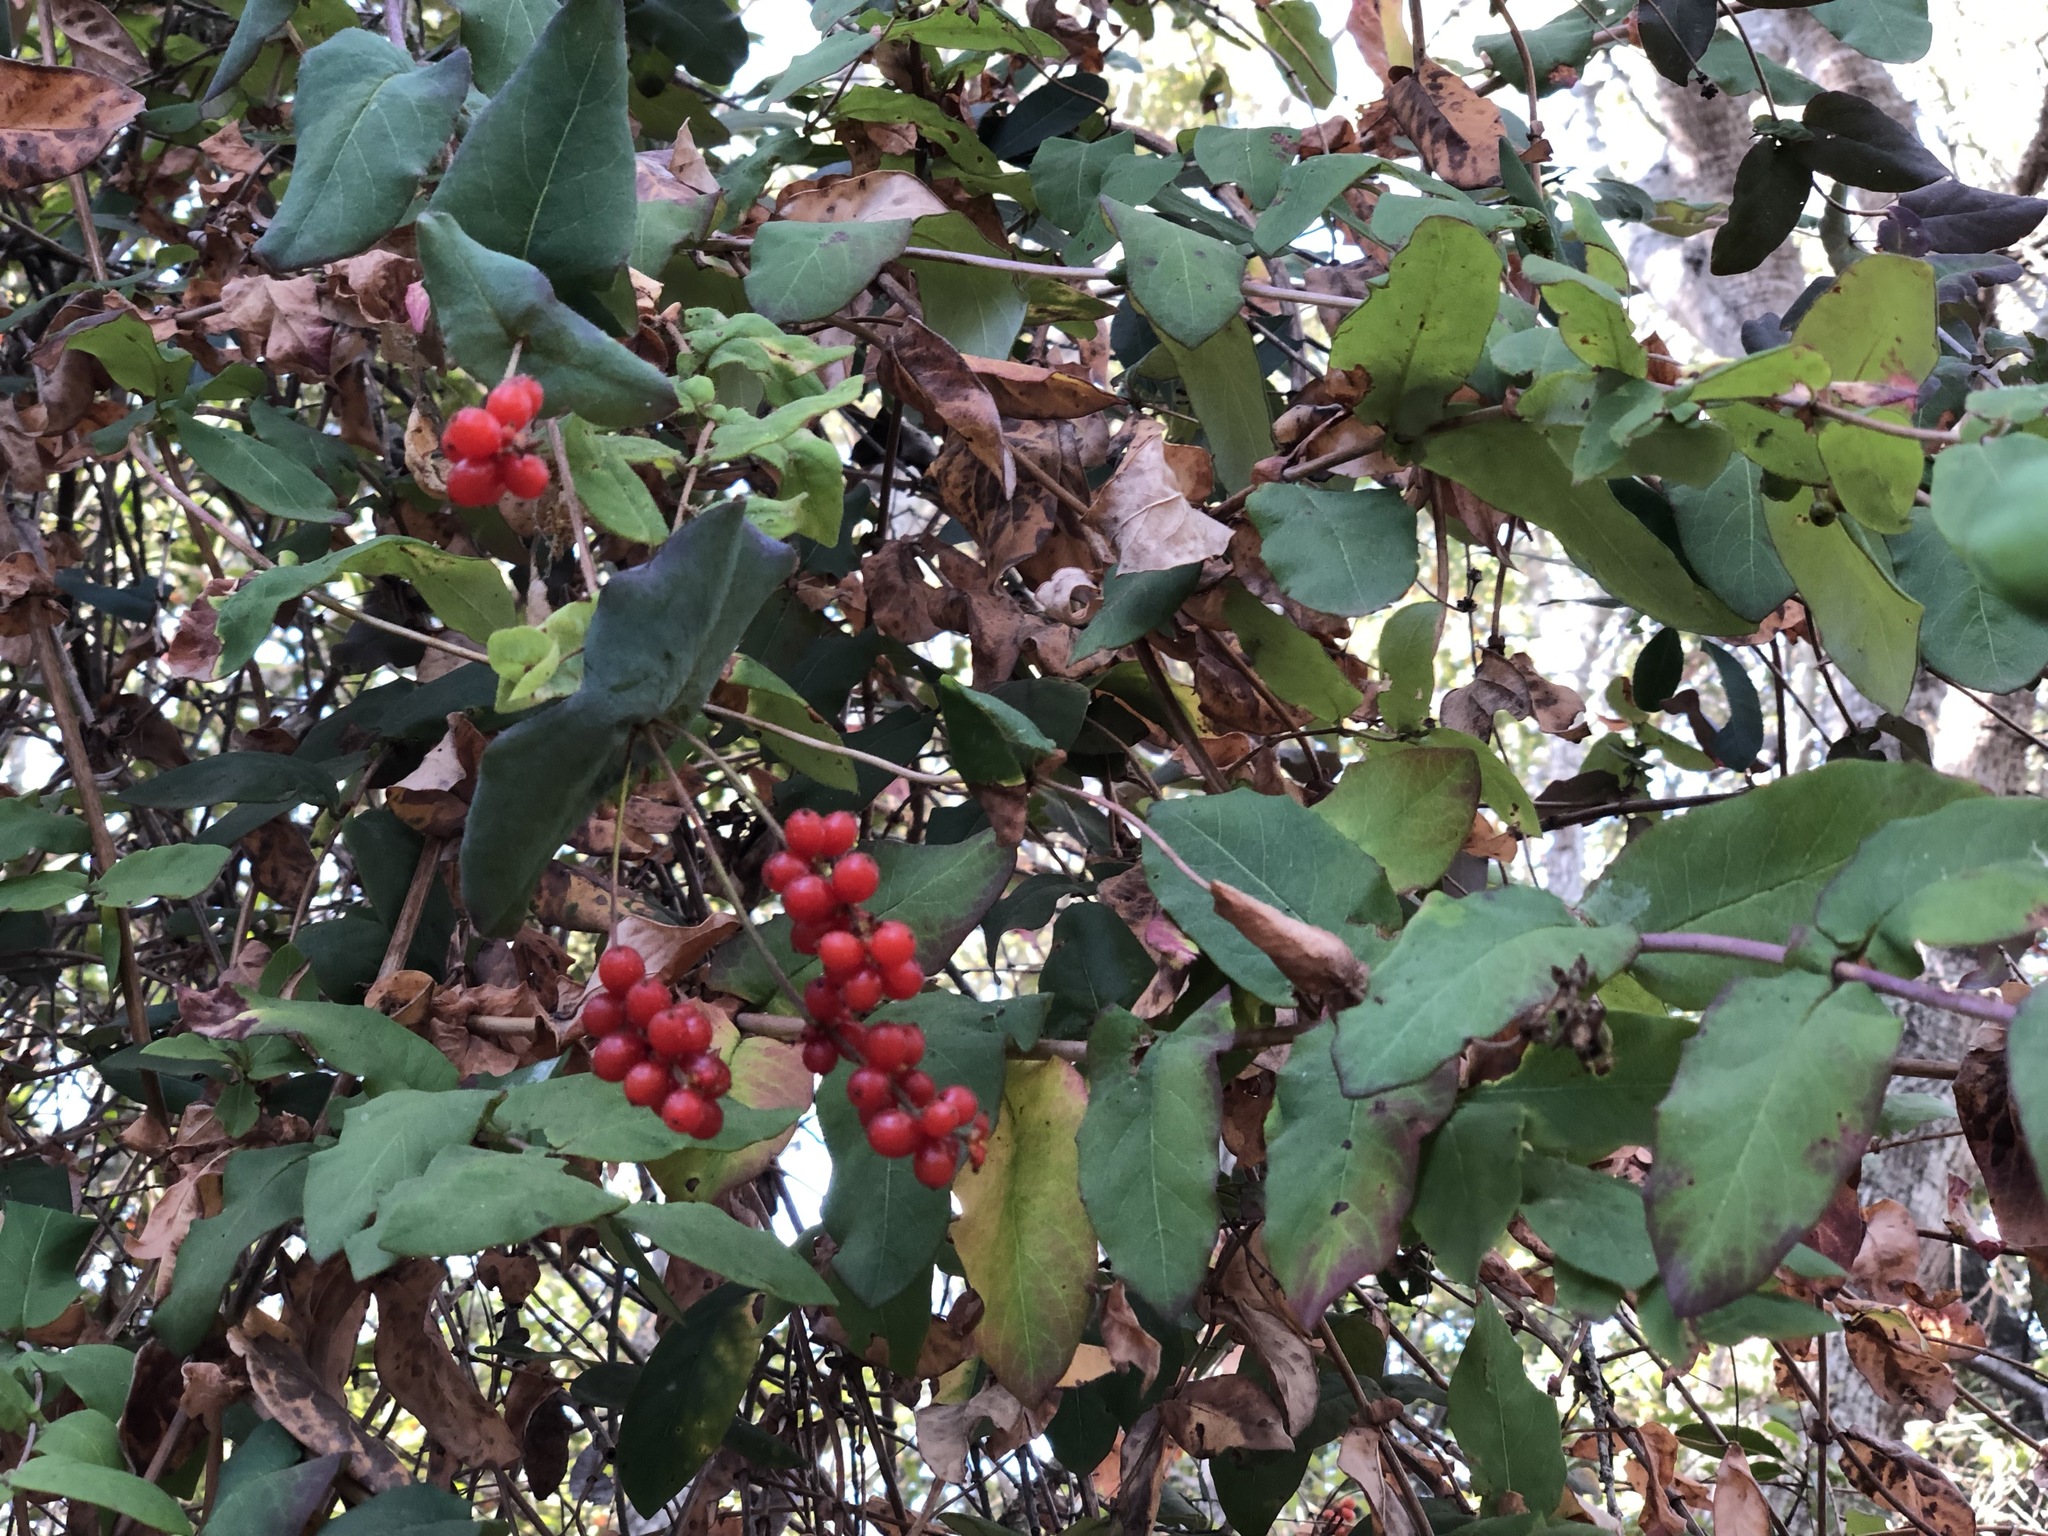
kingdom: Plantae
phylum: Tracheophyta
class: Magnoliopsida
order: Dipsacales
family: Caprifoliaceae
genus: Lonicera
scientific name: Lonicera hispidula
